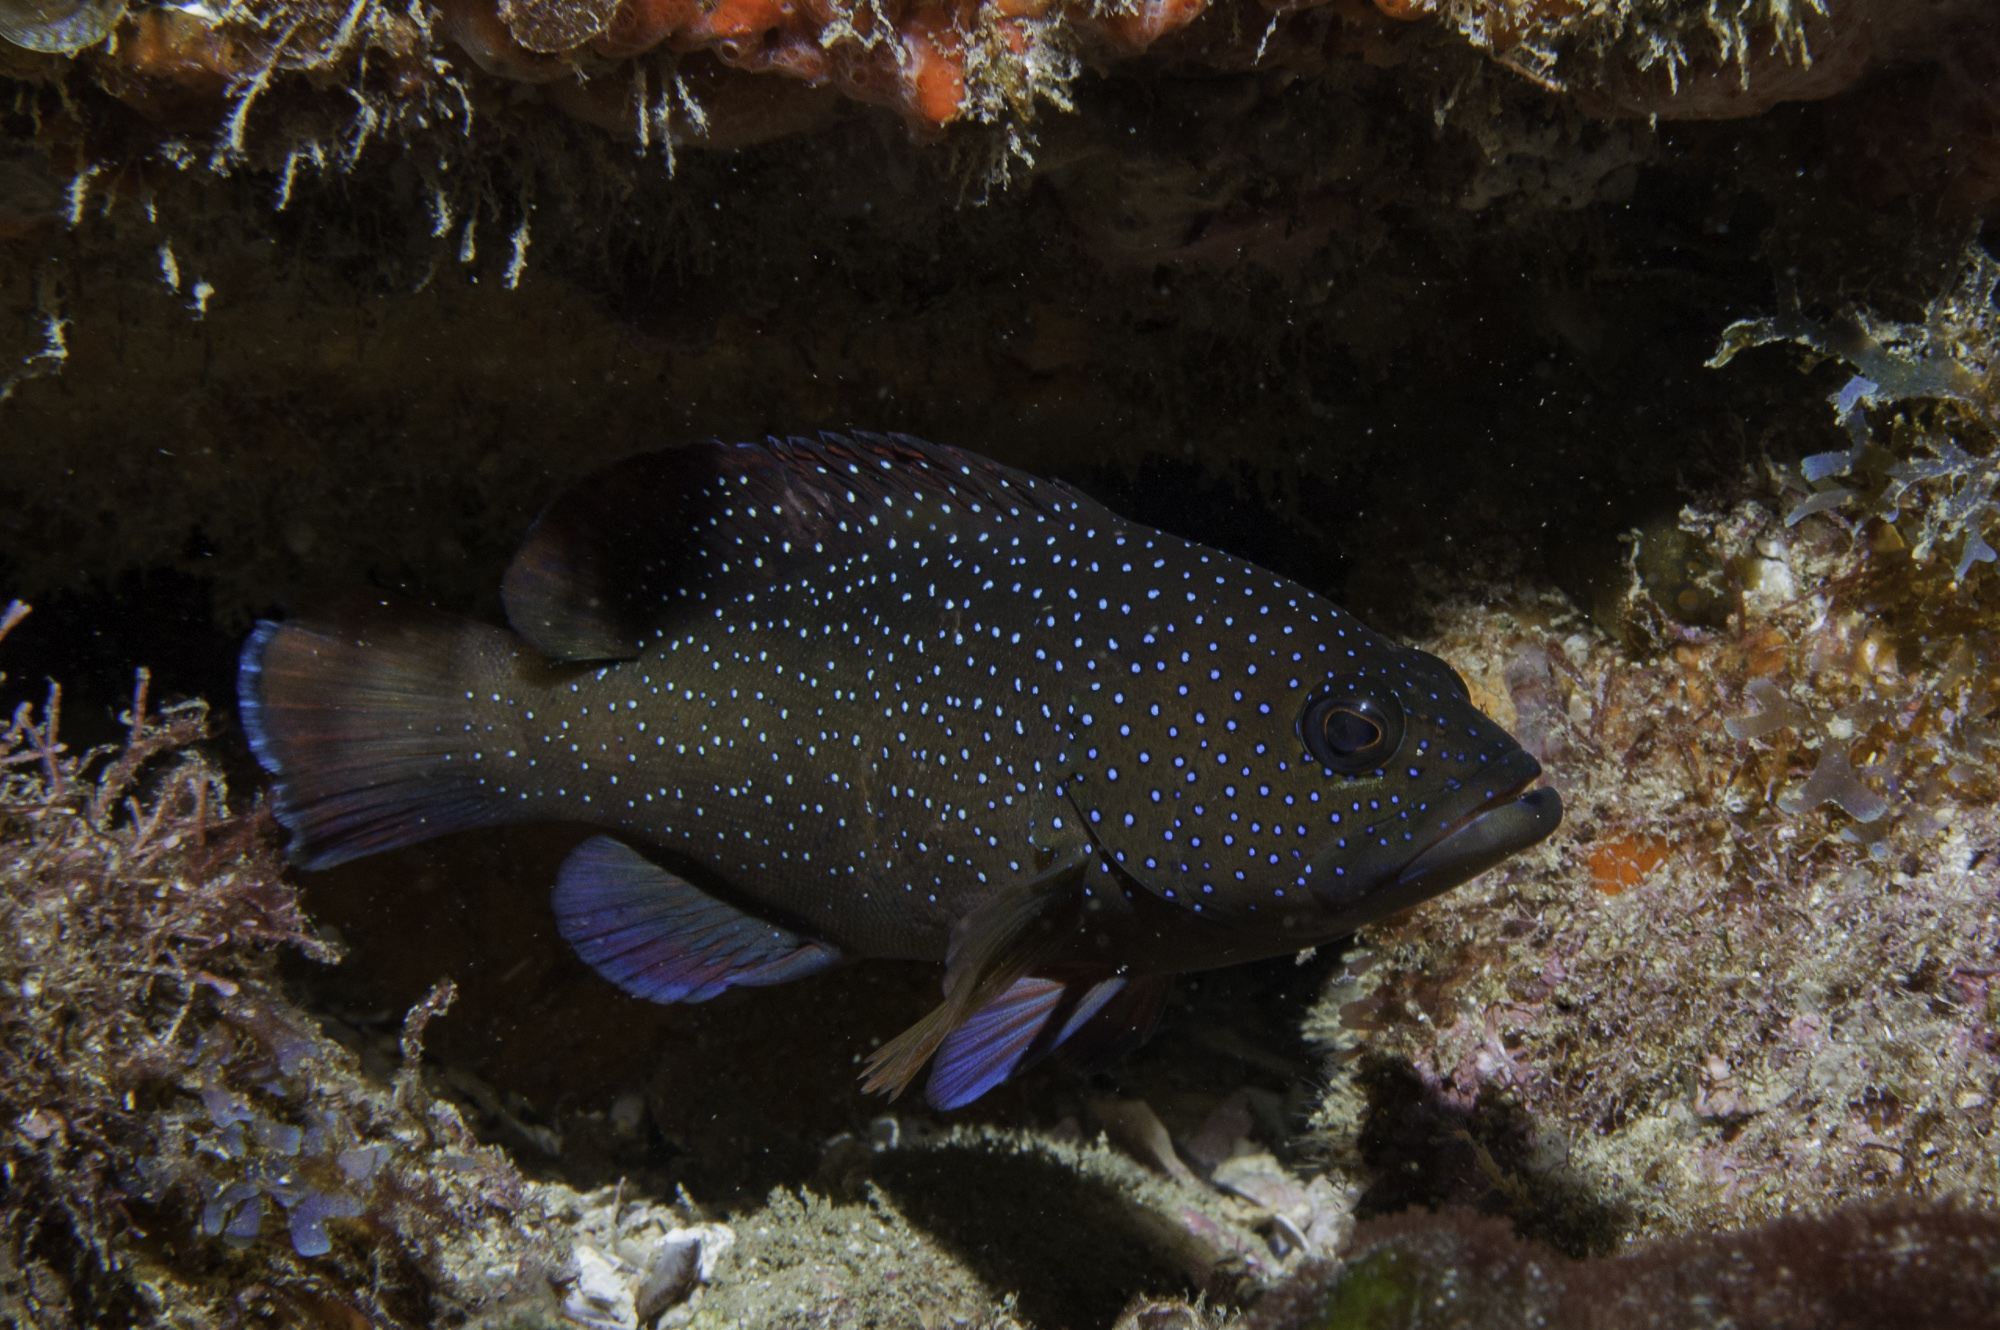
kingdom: Animalia
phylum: Chordata
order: Perciformes
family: Serranidae
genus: Cephalopholis
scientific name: Cephalopholis fulva
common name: Butterfish
